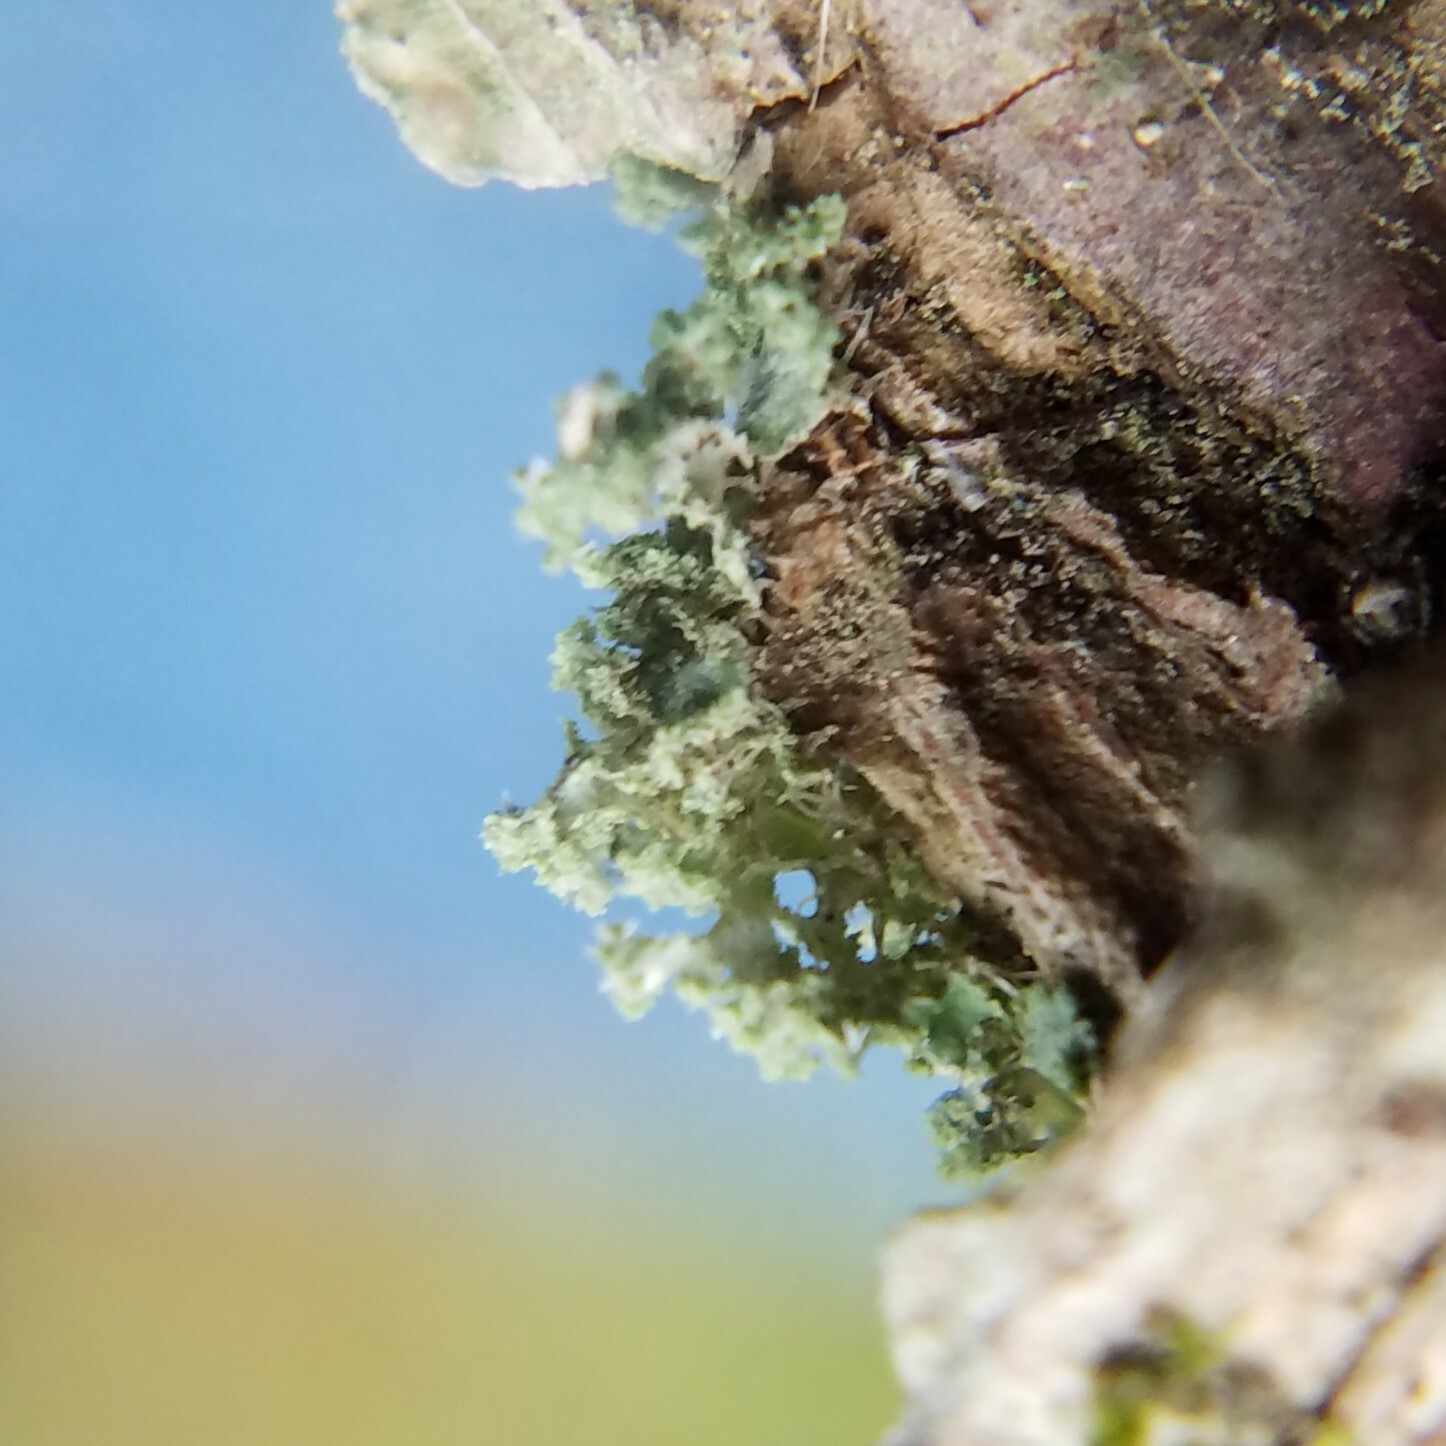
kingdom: Fungi
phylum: Ascomycota
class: Lecanoromycetes
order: Caliciales
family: Physciaceae
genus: Physcia
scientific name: Physcia millegrana
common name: Rosette lichen
